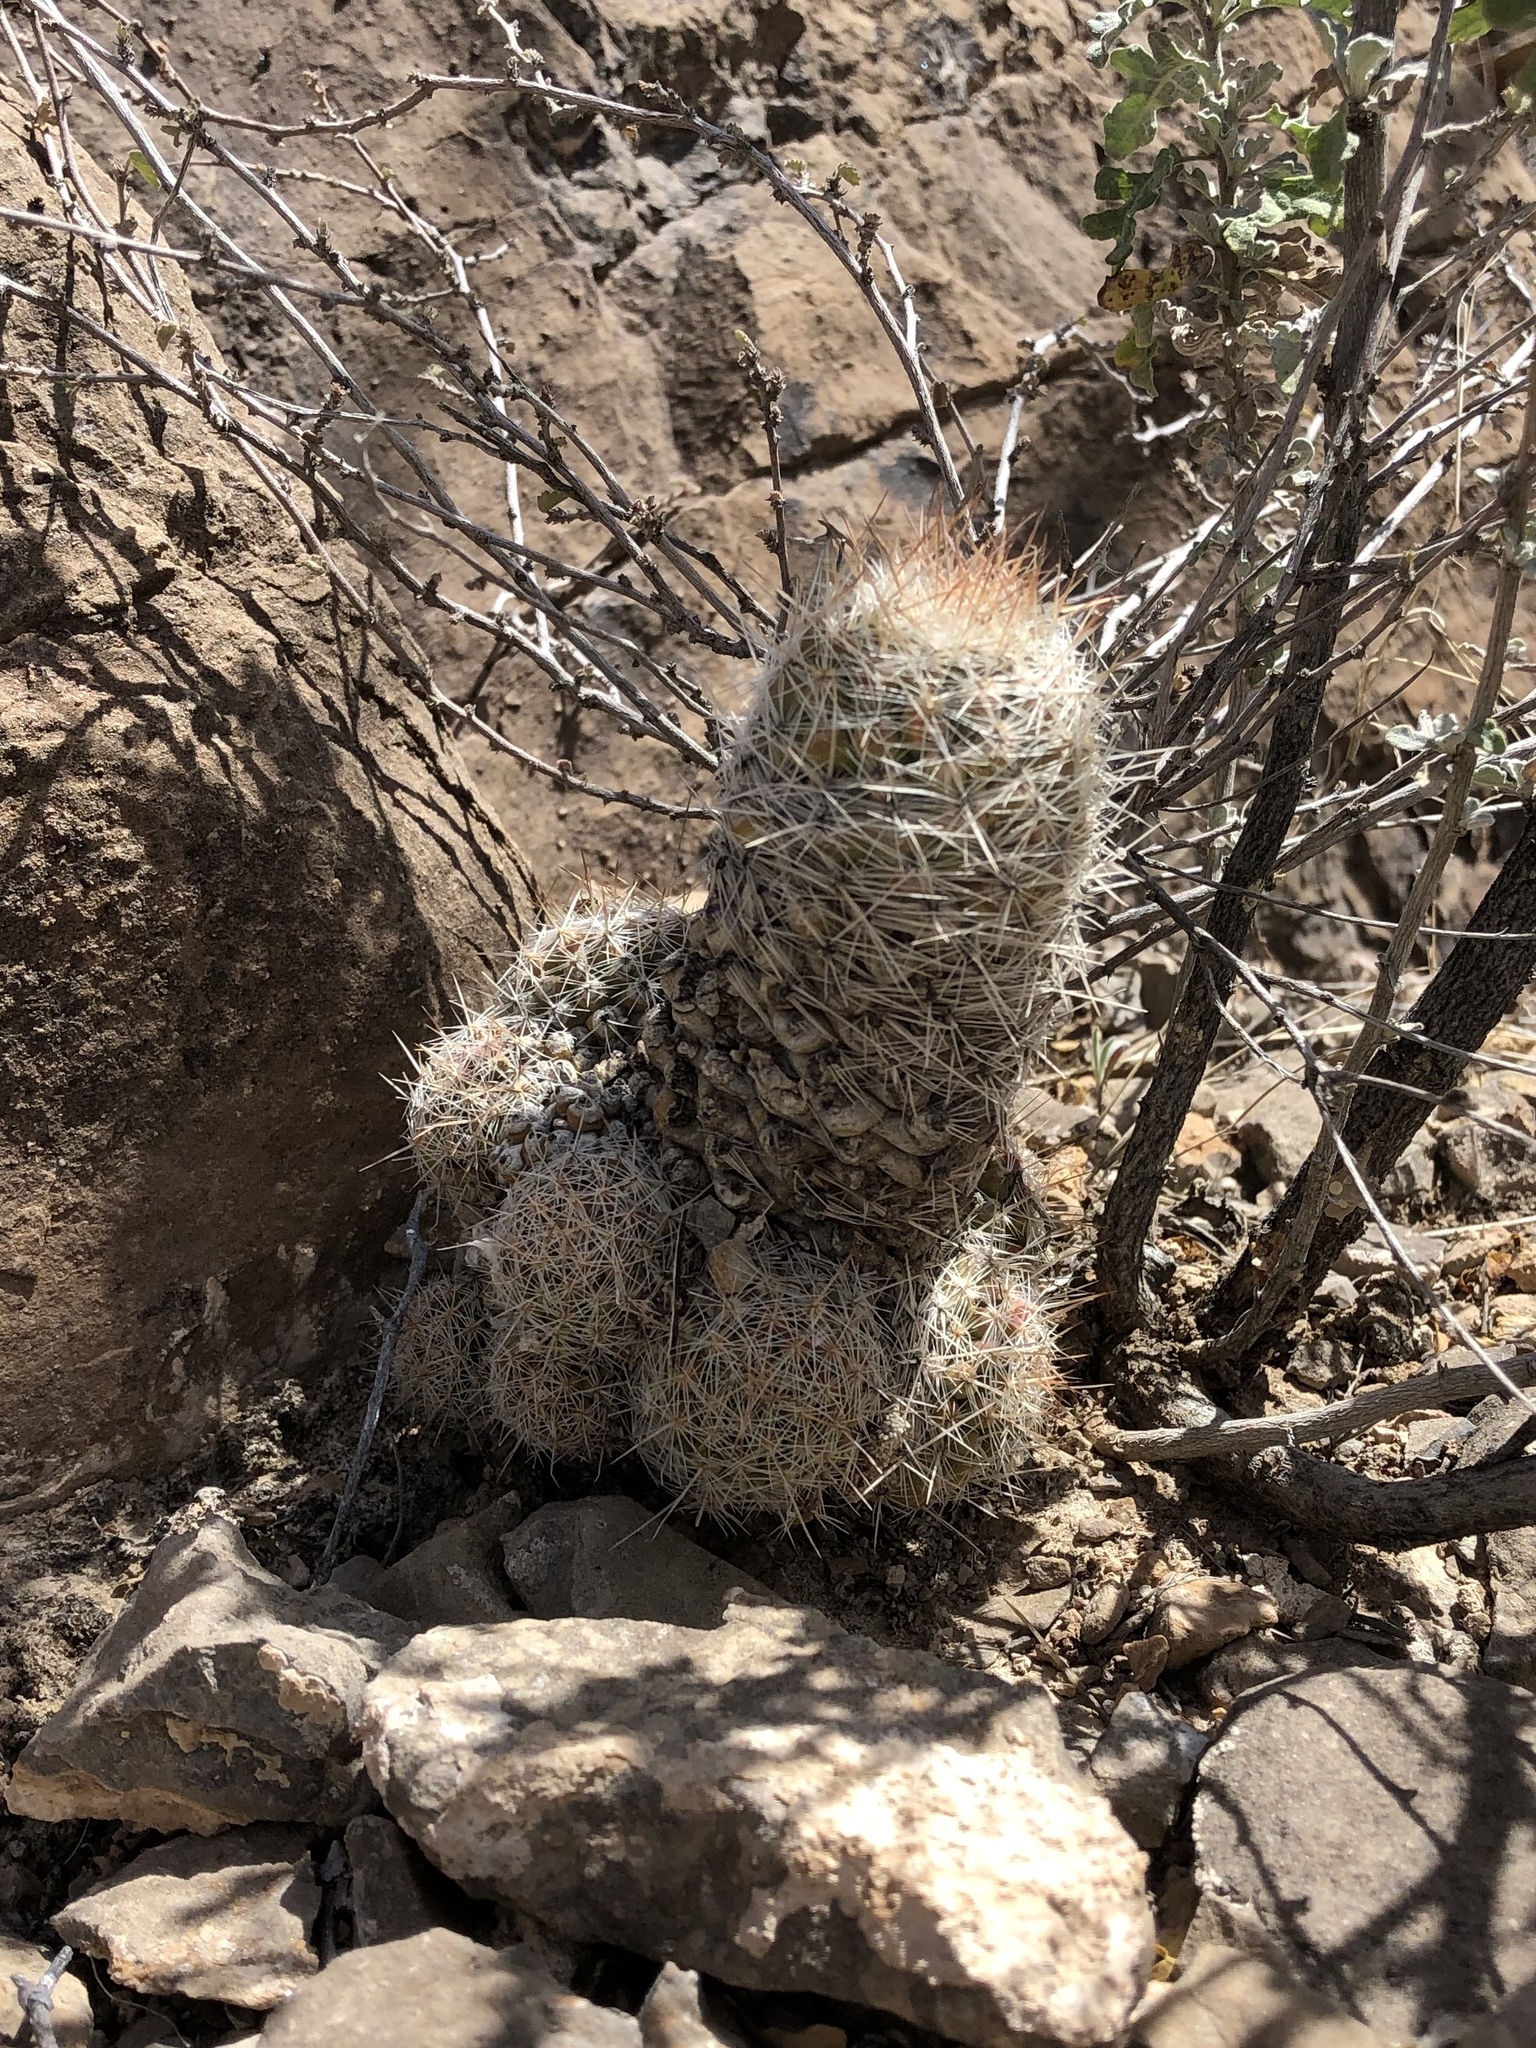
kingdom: Plantae
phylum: Tracheophyta
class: Magnoliopsida
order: Caryophyllales
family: Cactaceae
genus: Pelecyphora
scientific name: Pelecyphora tuberculosa
